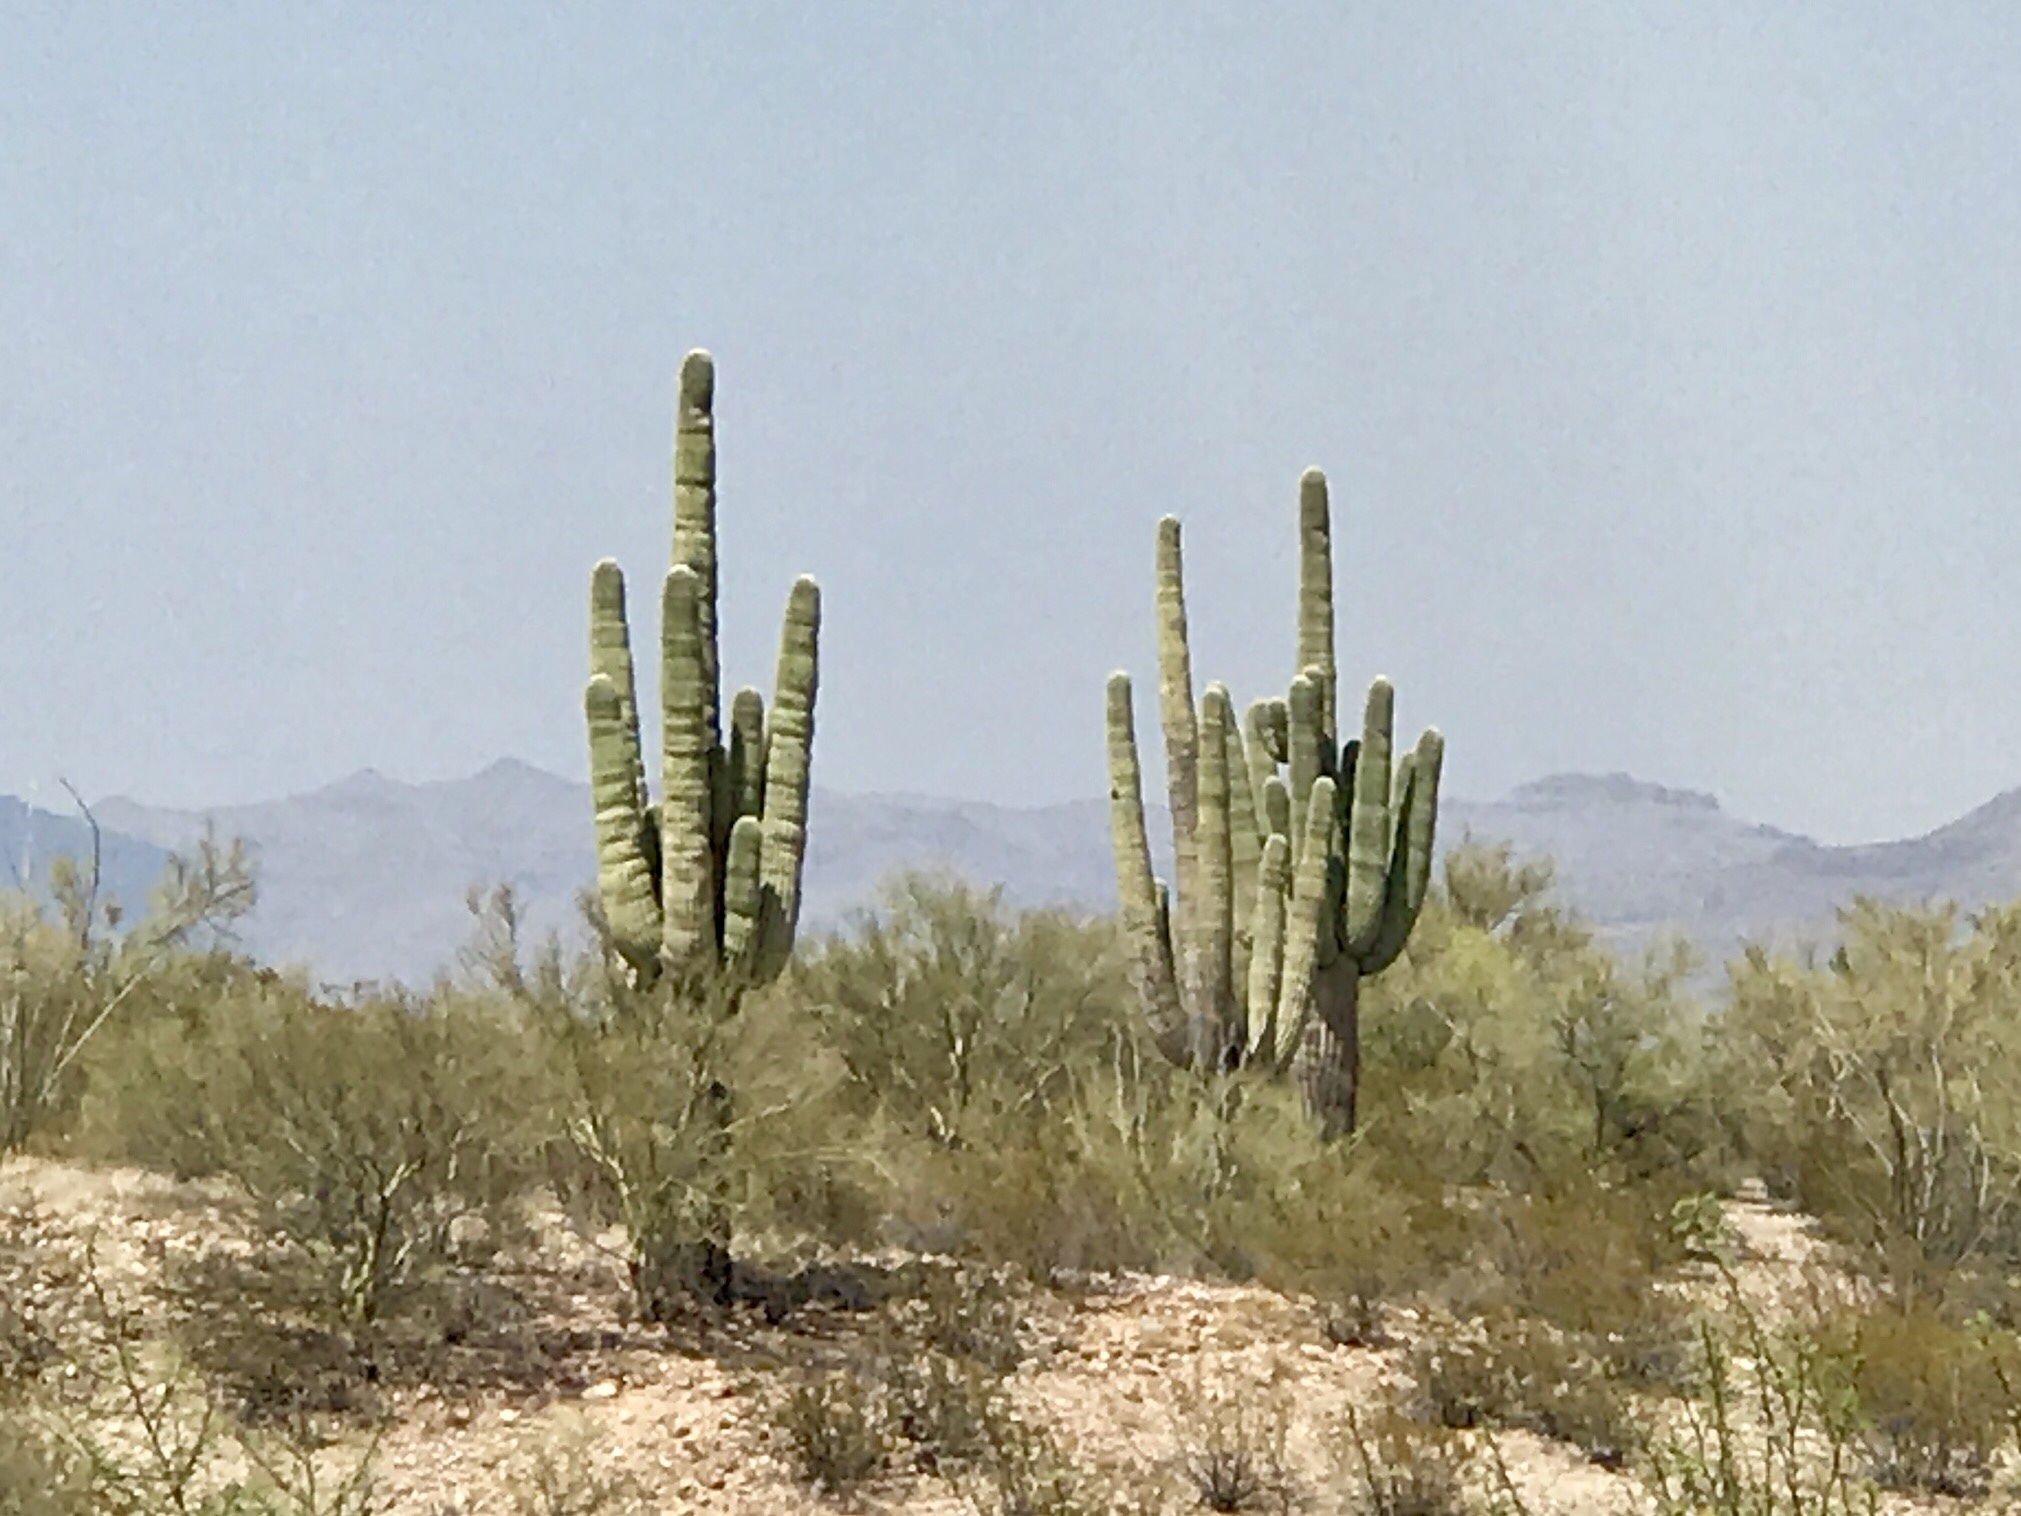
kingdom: Plantae
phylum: Tracheophyta
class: Magnoliopsida
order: Caryophyllales
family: Cactaceae
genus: Carnegiea
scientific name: Carnegiea gigantea
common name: Saguaro
